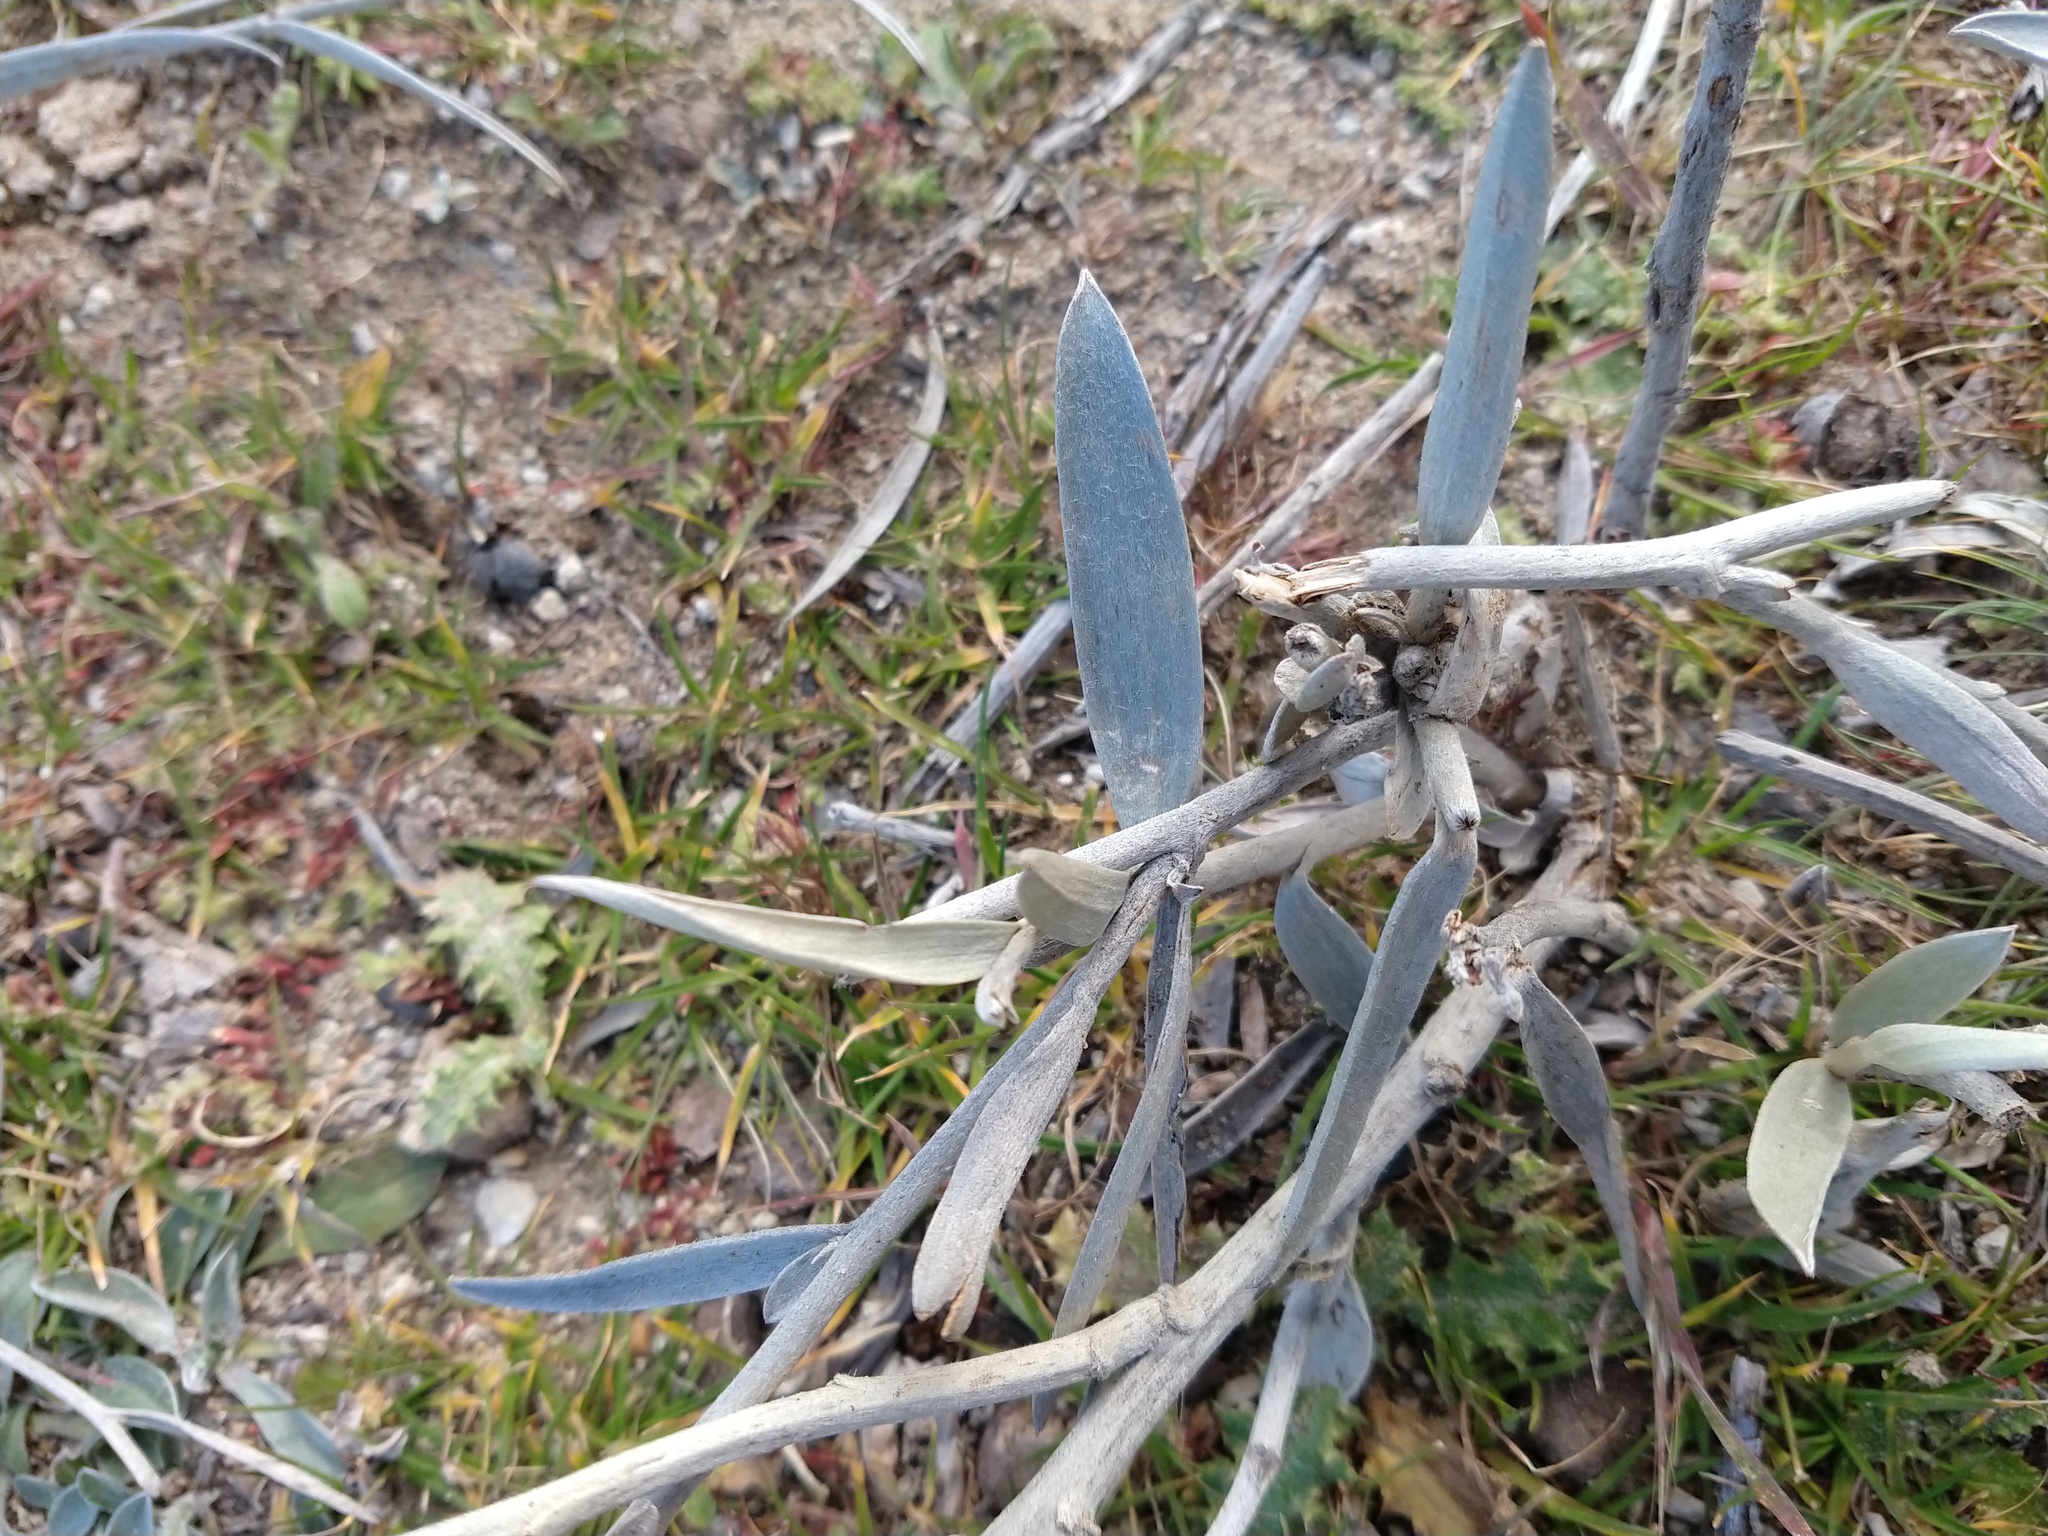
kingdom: Plantae
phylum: Tracheophyta
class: Magnoliopsida
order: Asterales
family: Asteraceae
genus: Hyalis
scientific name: Hyalis argentea
